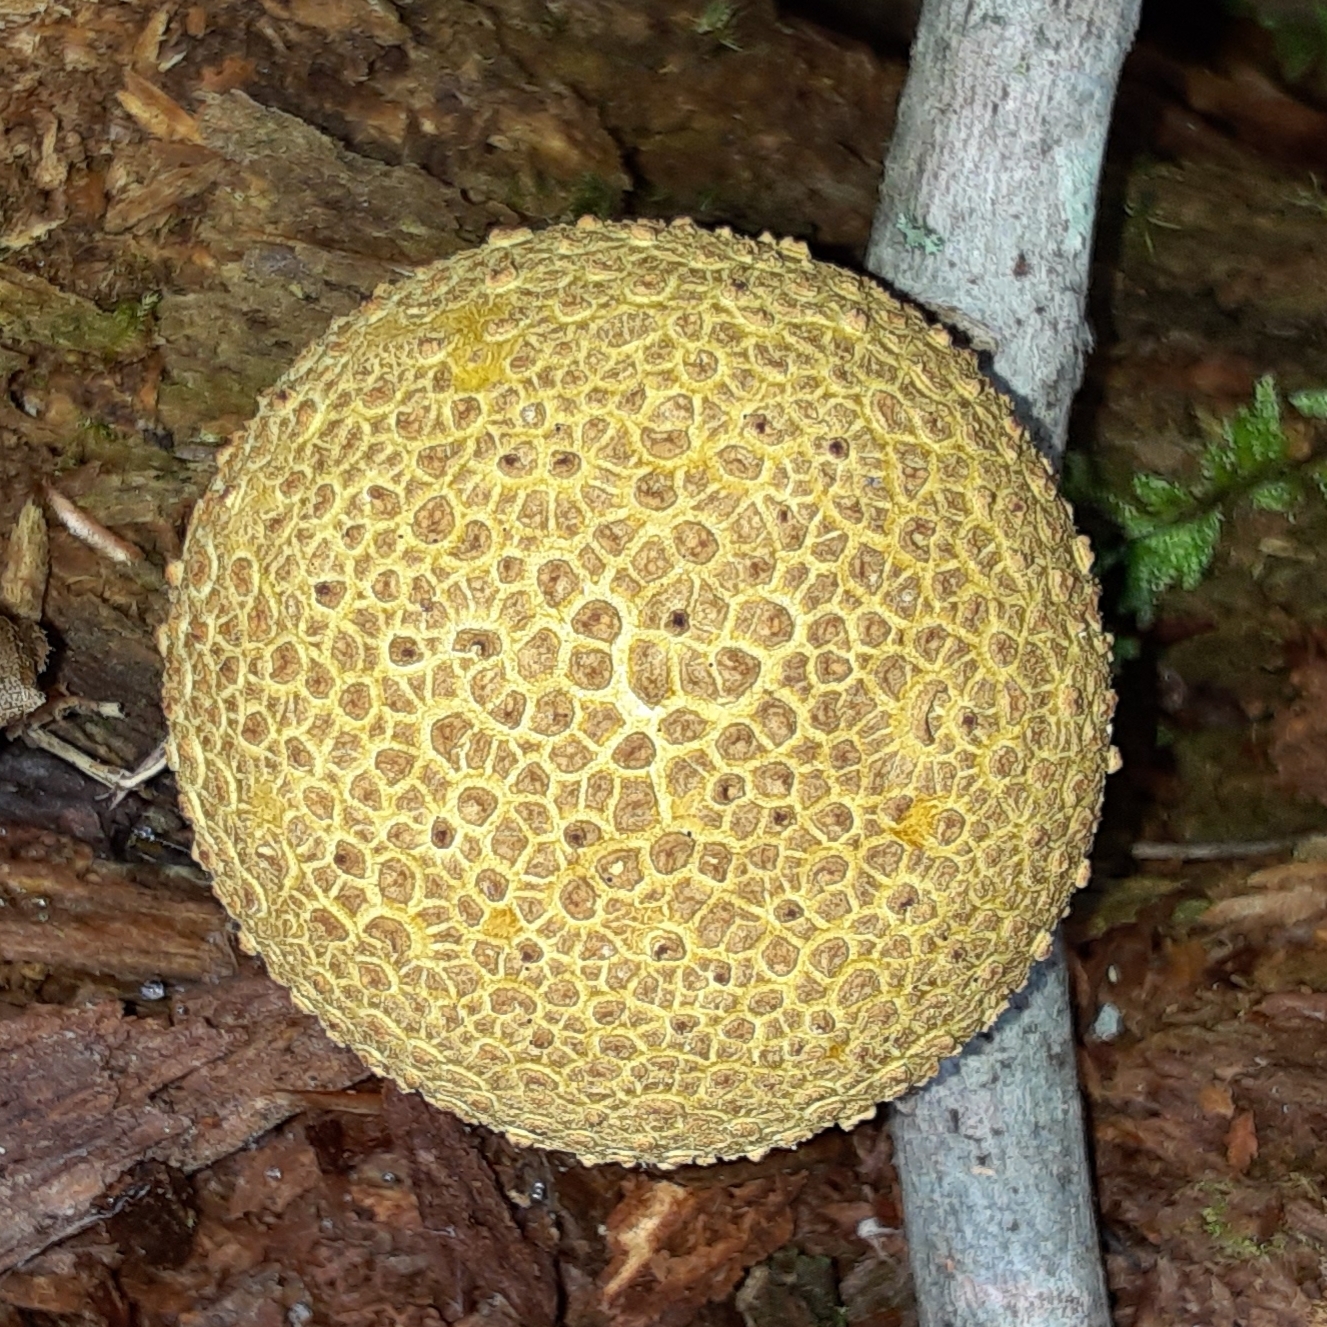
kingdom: Fungi
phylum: Basidiomycota
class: Agaricomycetes
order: Boletales
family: Sclerodermataceae
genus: Scleroderma
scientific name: Scleroderma citrinum
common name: Common earthball
